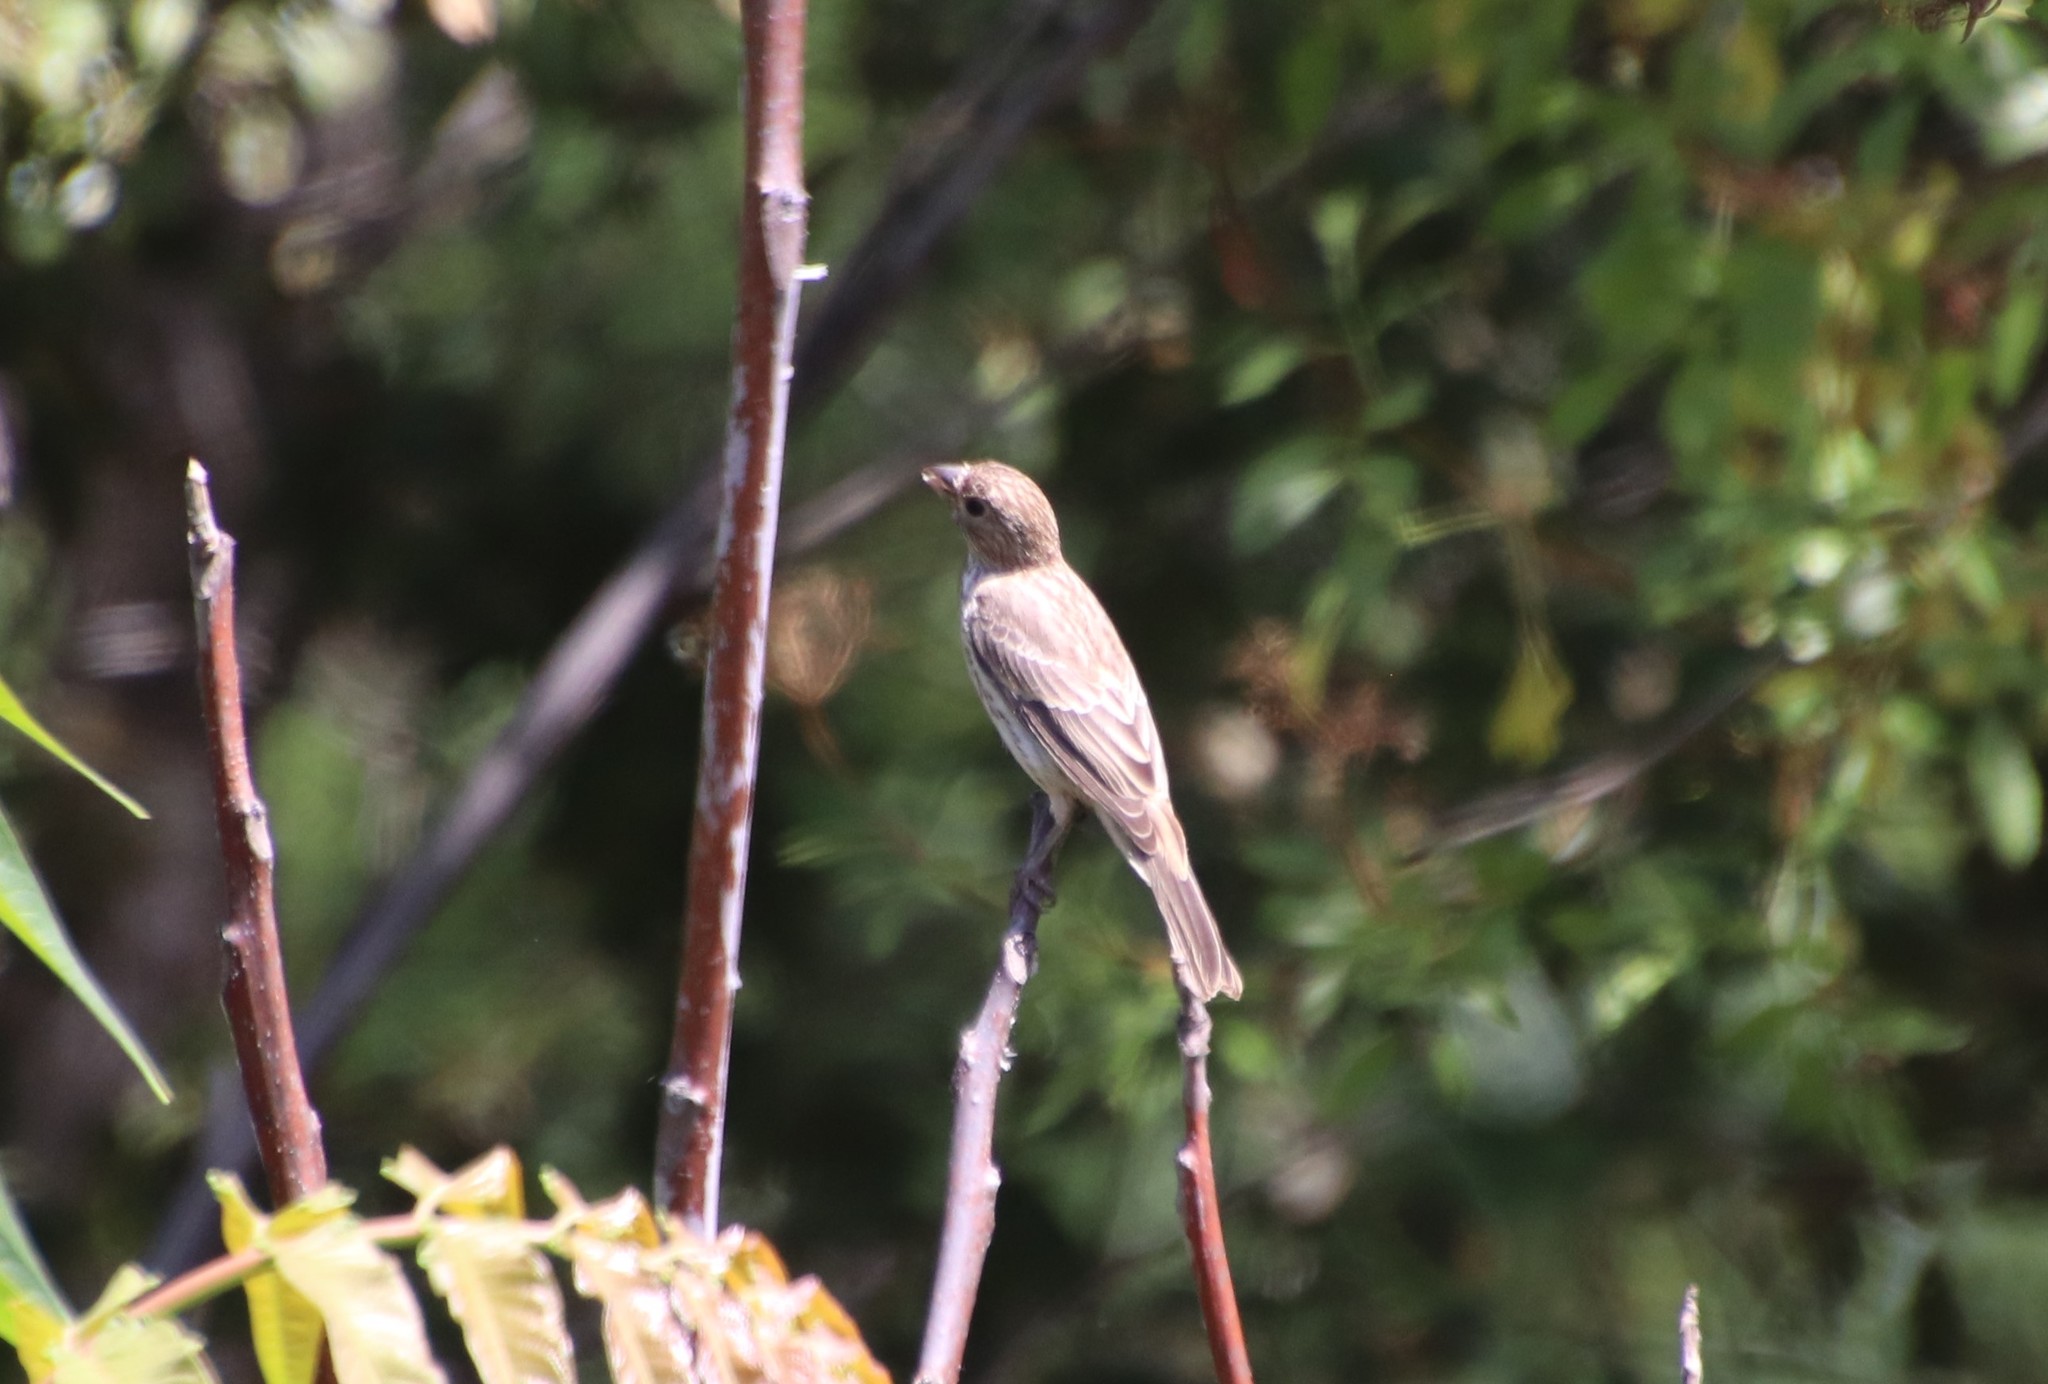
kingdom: Animalia
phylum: Chordata
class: Aves
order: Passeriformes
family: Fringillidae
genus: Haemorhous
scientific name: Haemorhous mexicanus
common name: House finch
